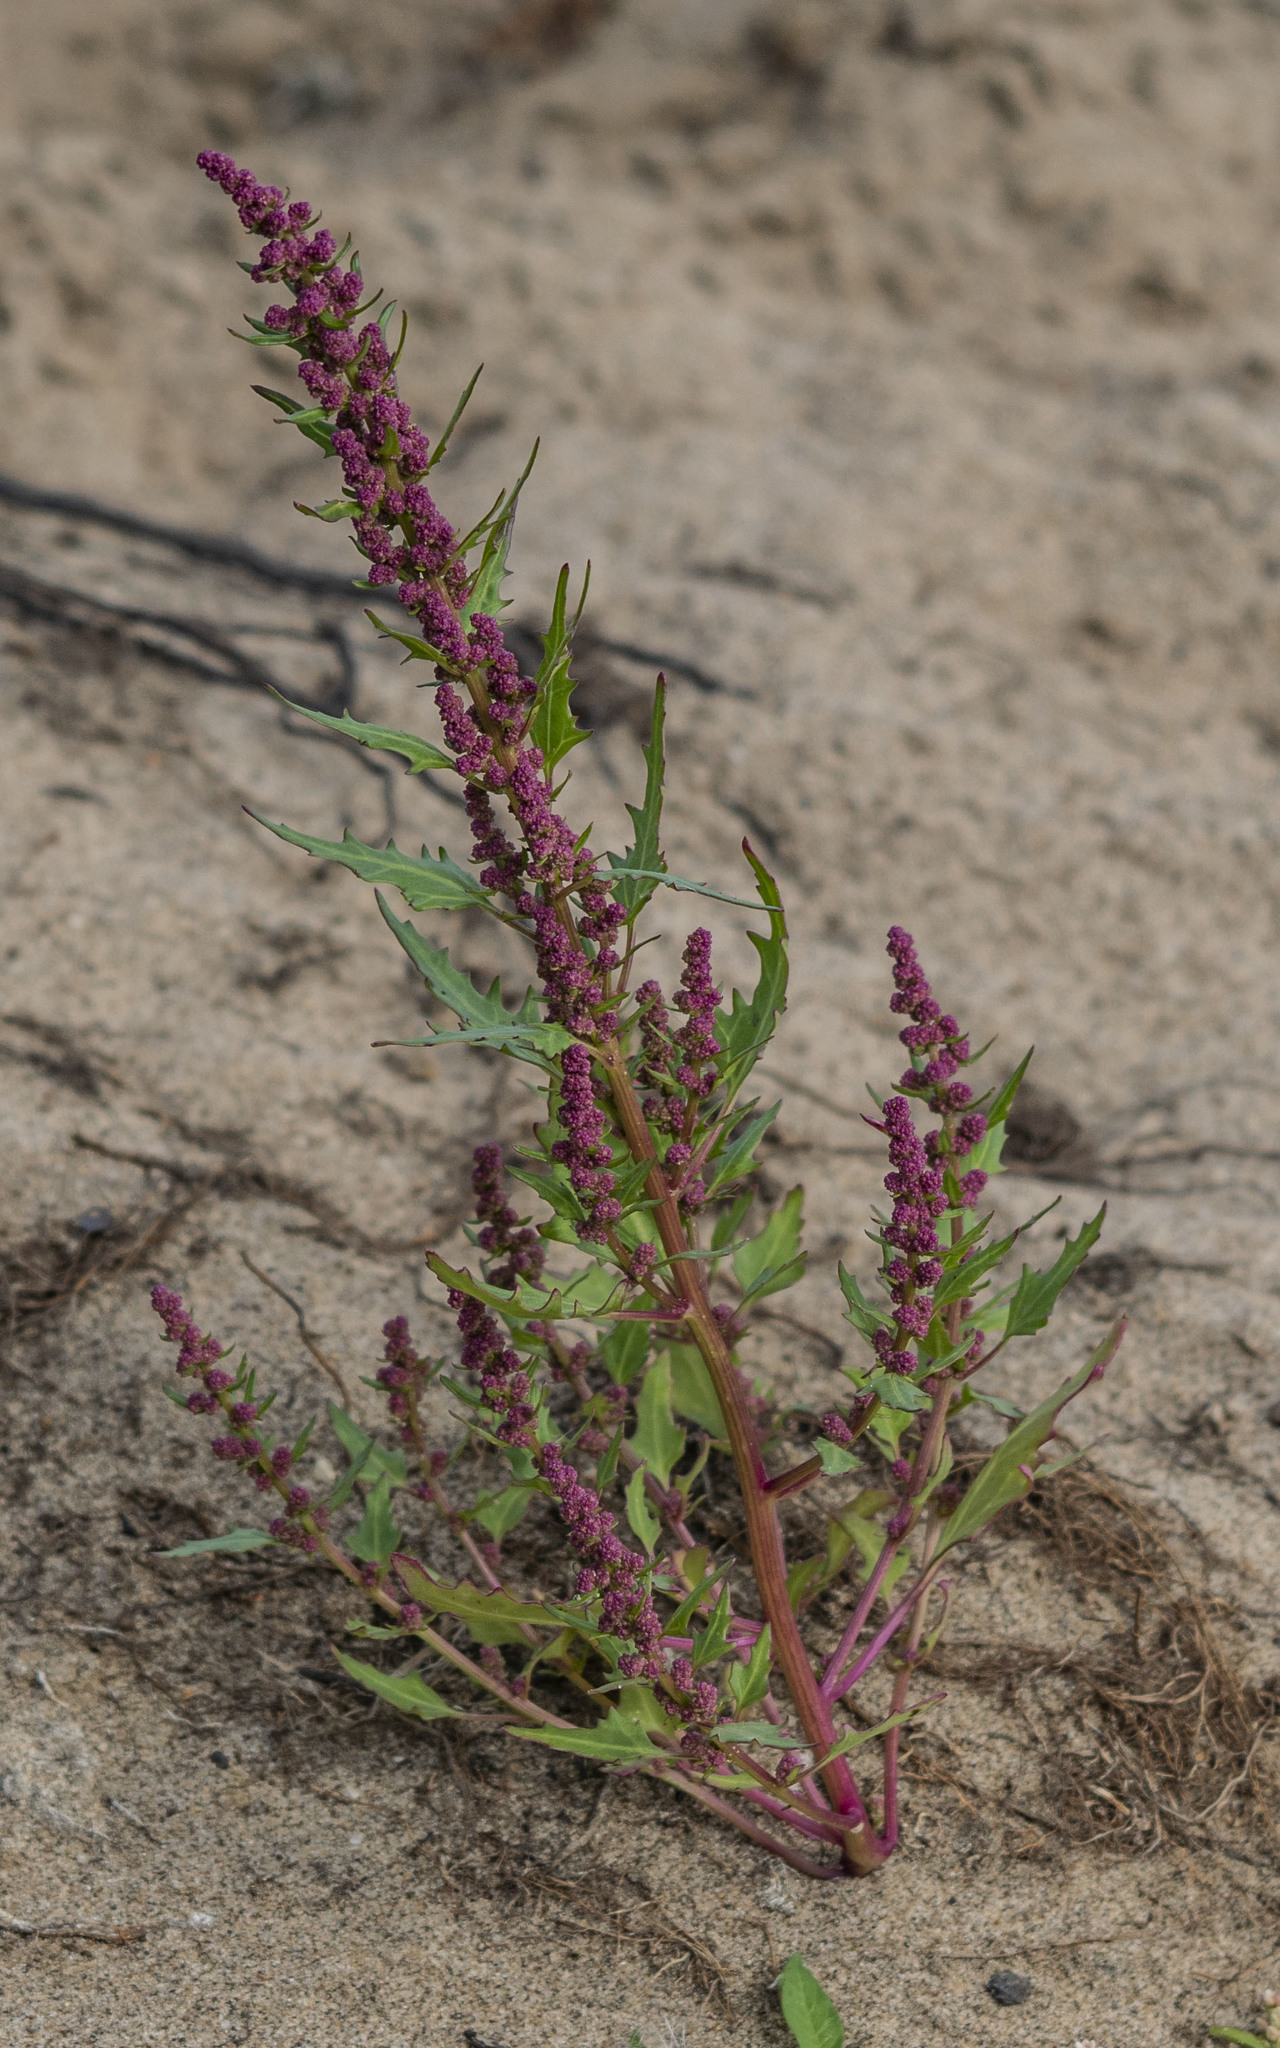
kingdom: Plantae
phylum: Tracheophyta
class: Magnoliopsida
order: Caryophyllales
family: Amaranthaceae
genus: Oxybasis
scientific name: Oxybasis rubra
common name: Red goosefoot
